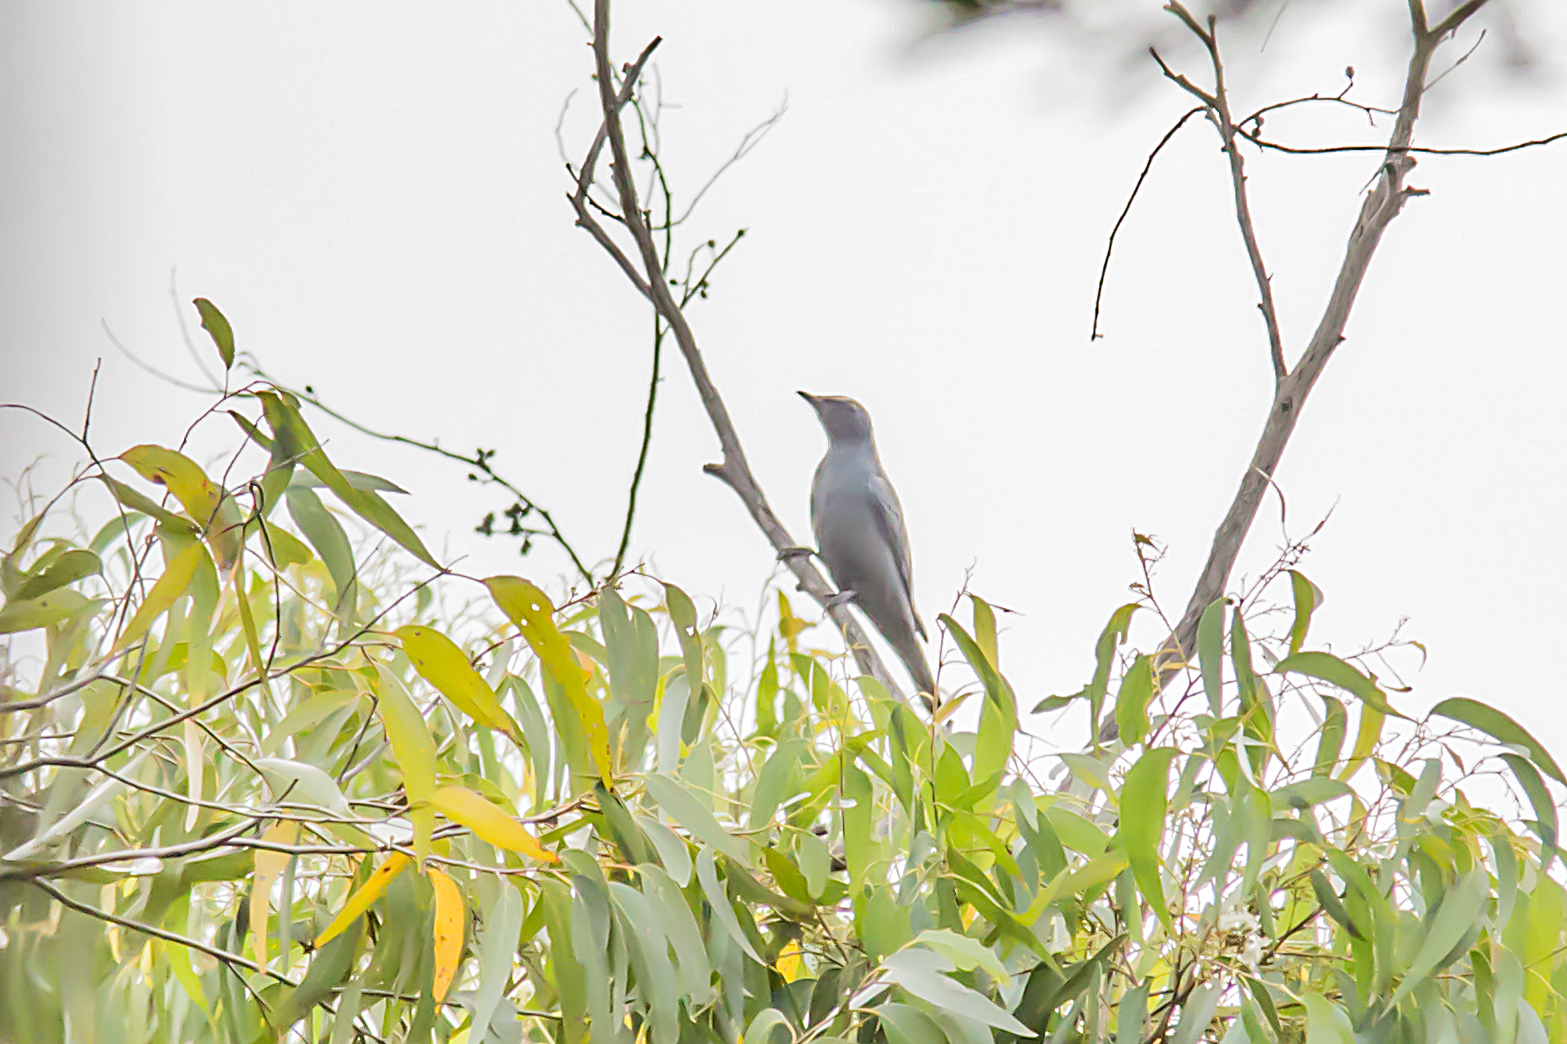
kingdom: Animalia
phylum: Chordata
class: Aves
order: Passeriformes
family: Campephagidae
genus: Edolisoma
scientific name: Edolisoma tenuirostre
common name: Common cicadabird
